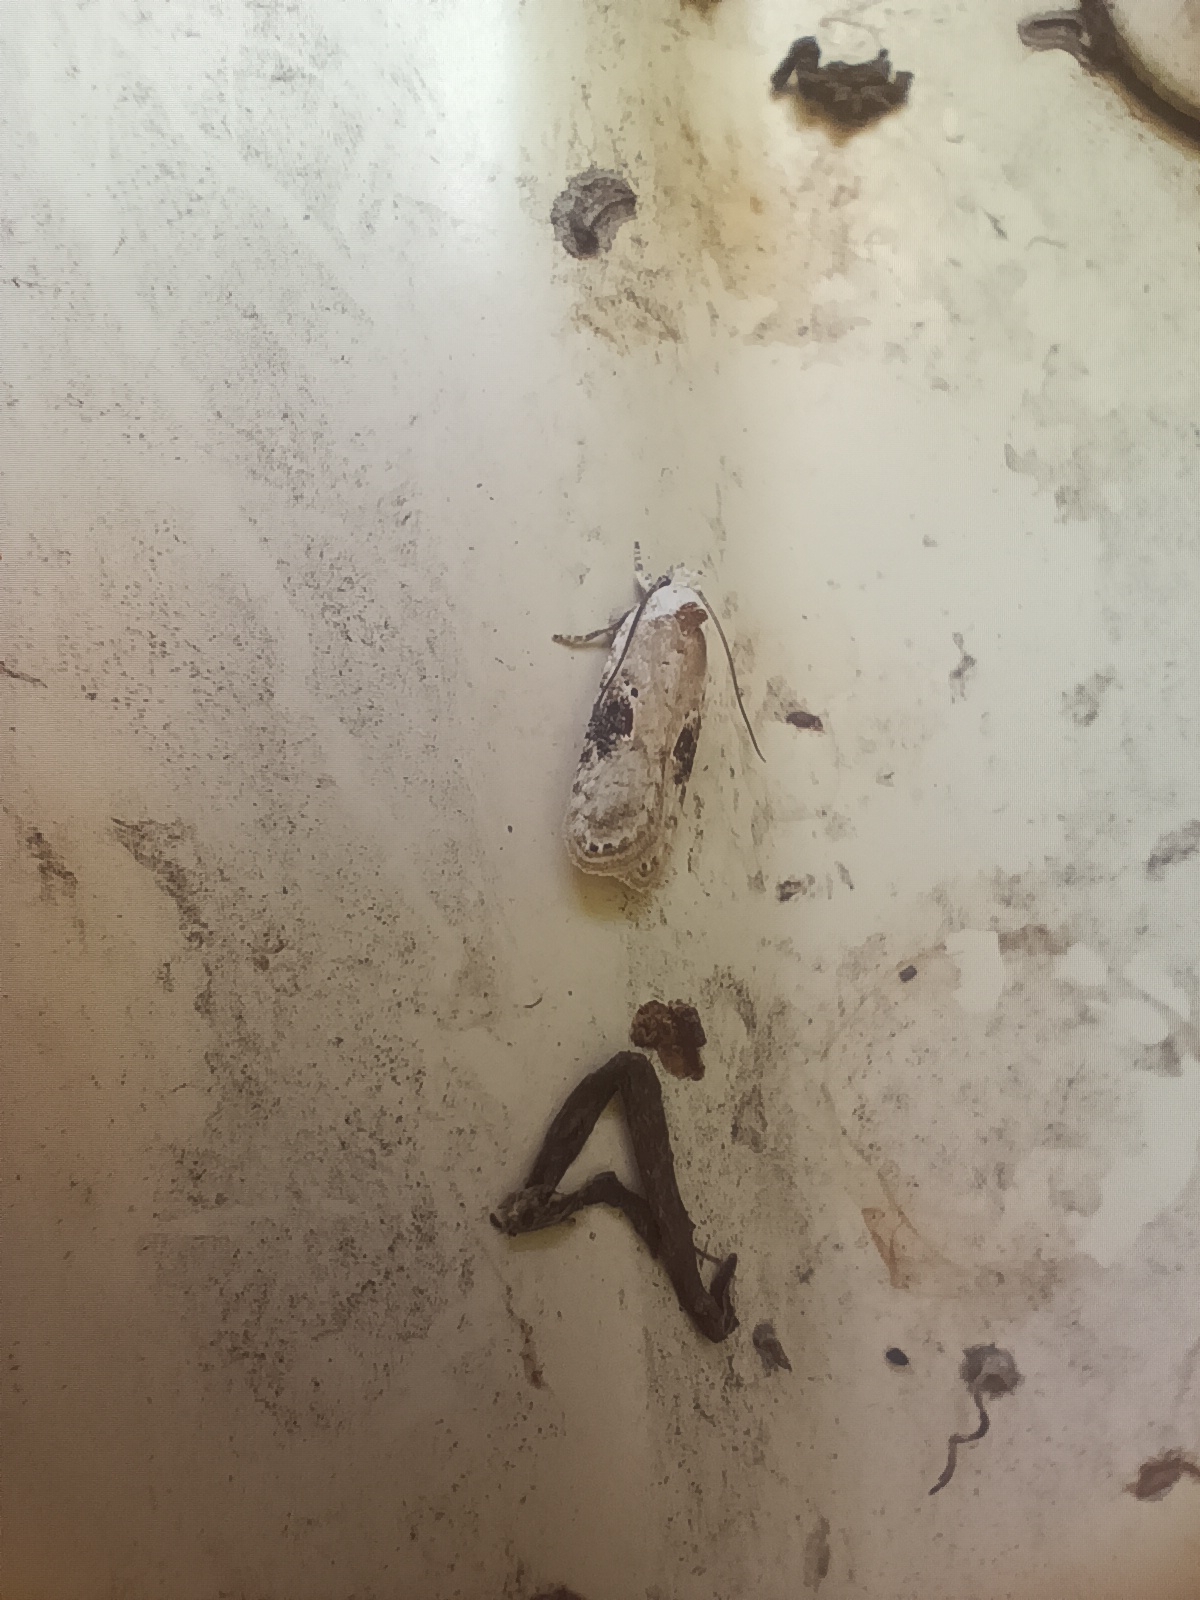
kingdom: Animalia
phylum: Arthropoda
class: Insecta
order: Lepidoptera
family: Depressariidae
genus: Agonopterix
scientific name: Agonopterix alstroemeriana
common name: Moth
